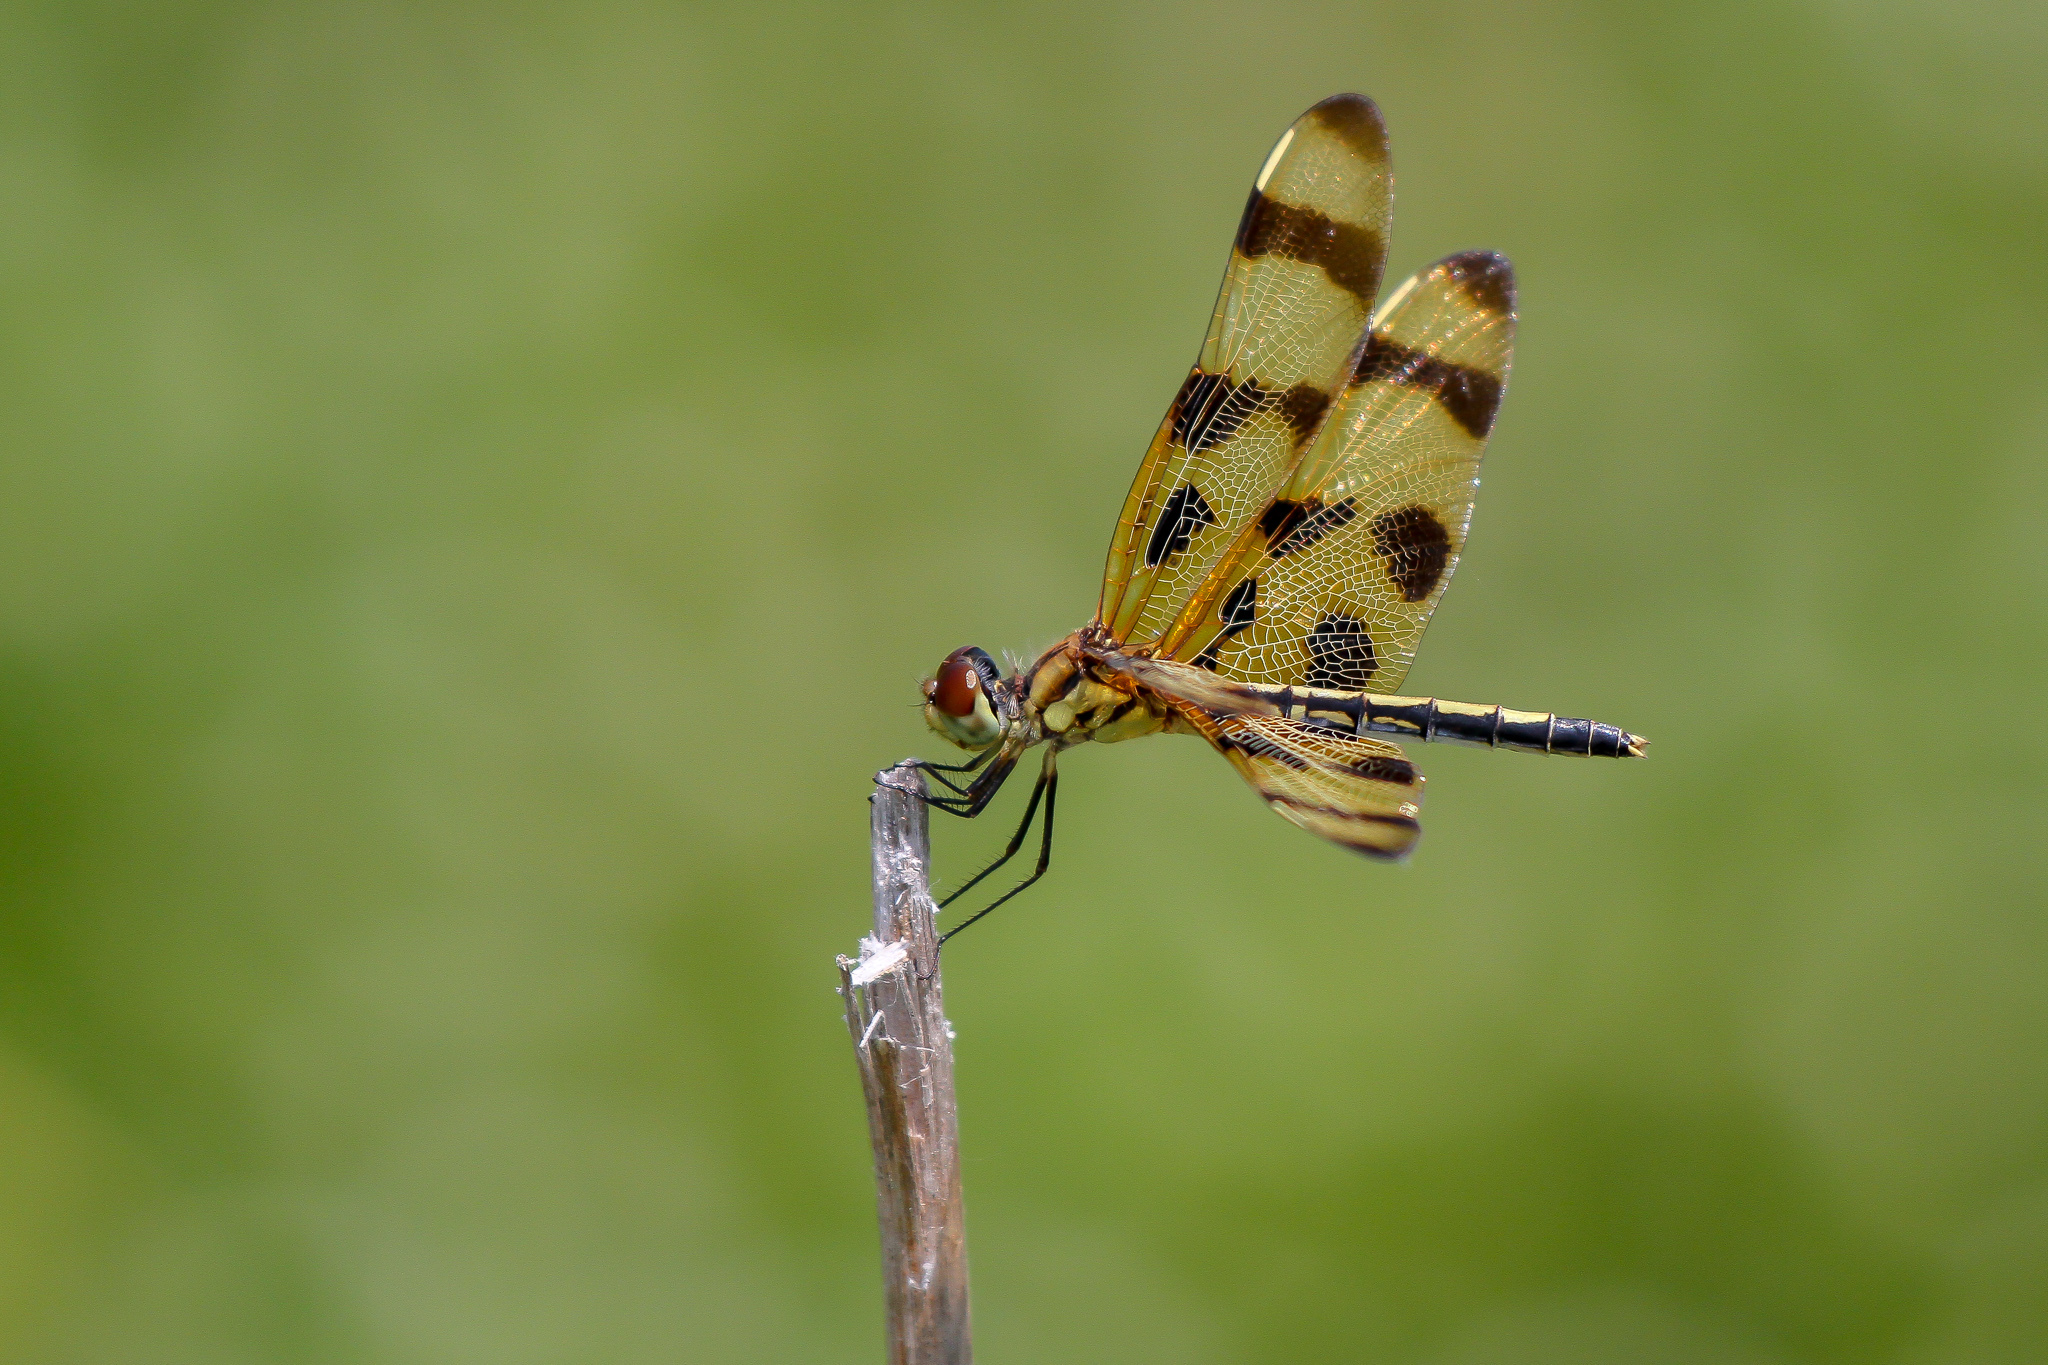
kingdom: Animalia
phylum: Arthropoda
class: Insecta
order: Odonata
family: Libellulidae
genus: Celithemis
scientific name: Celithemis eponina
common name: Halloween pennant
